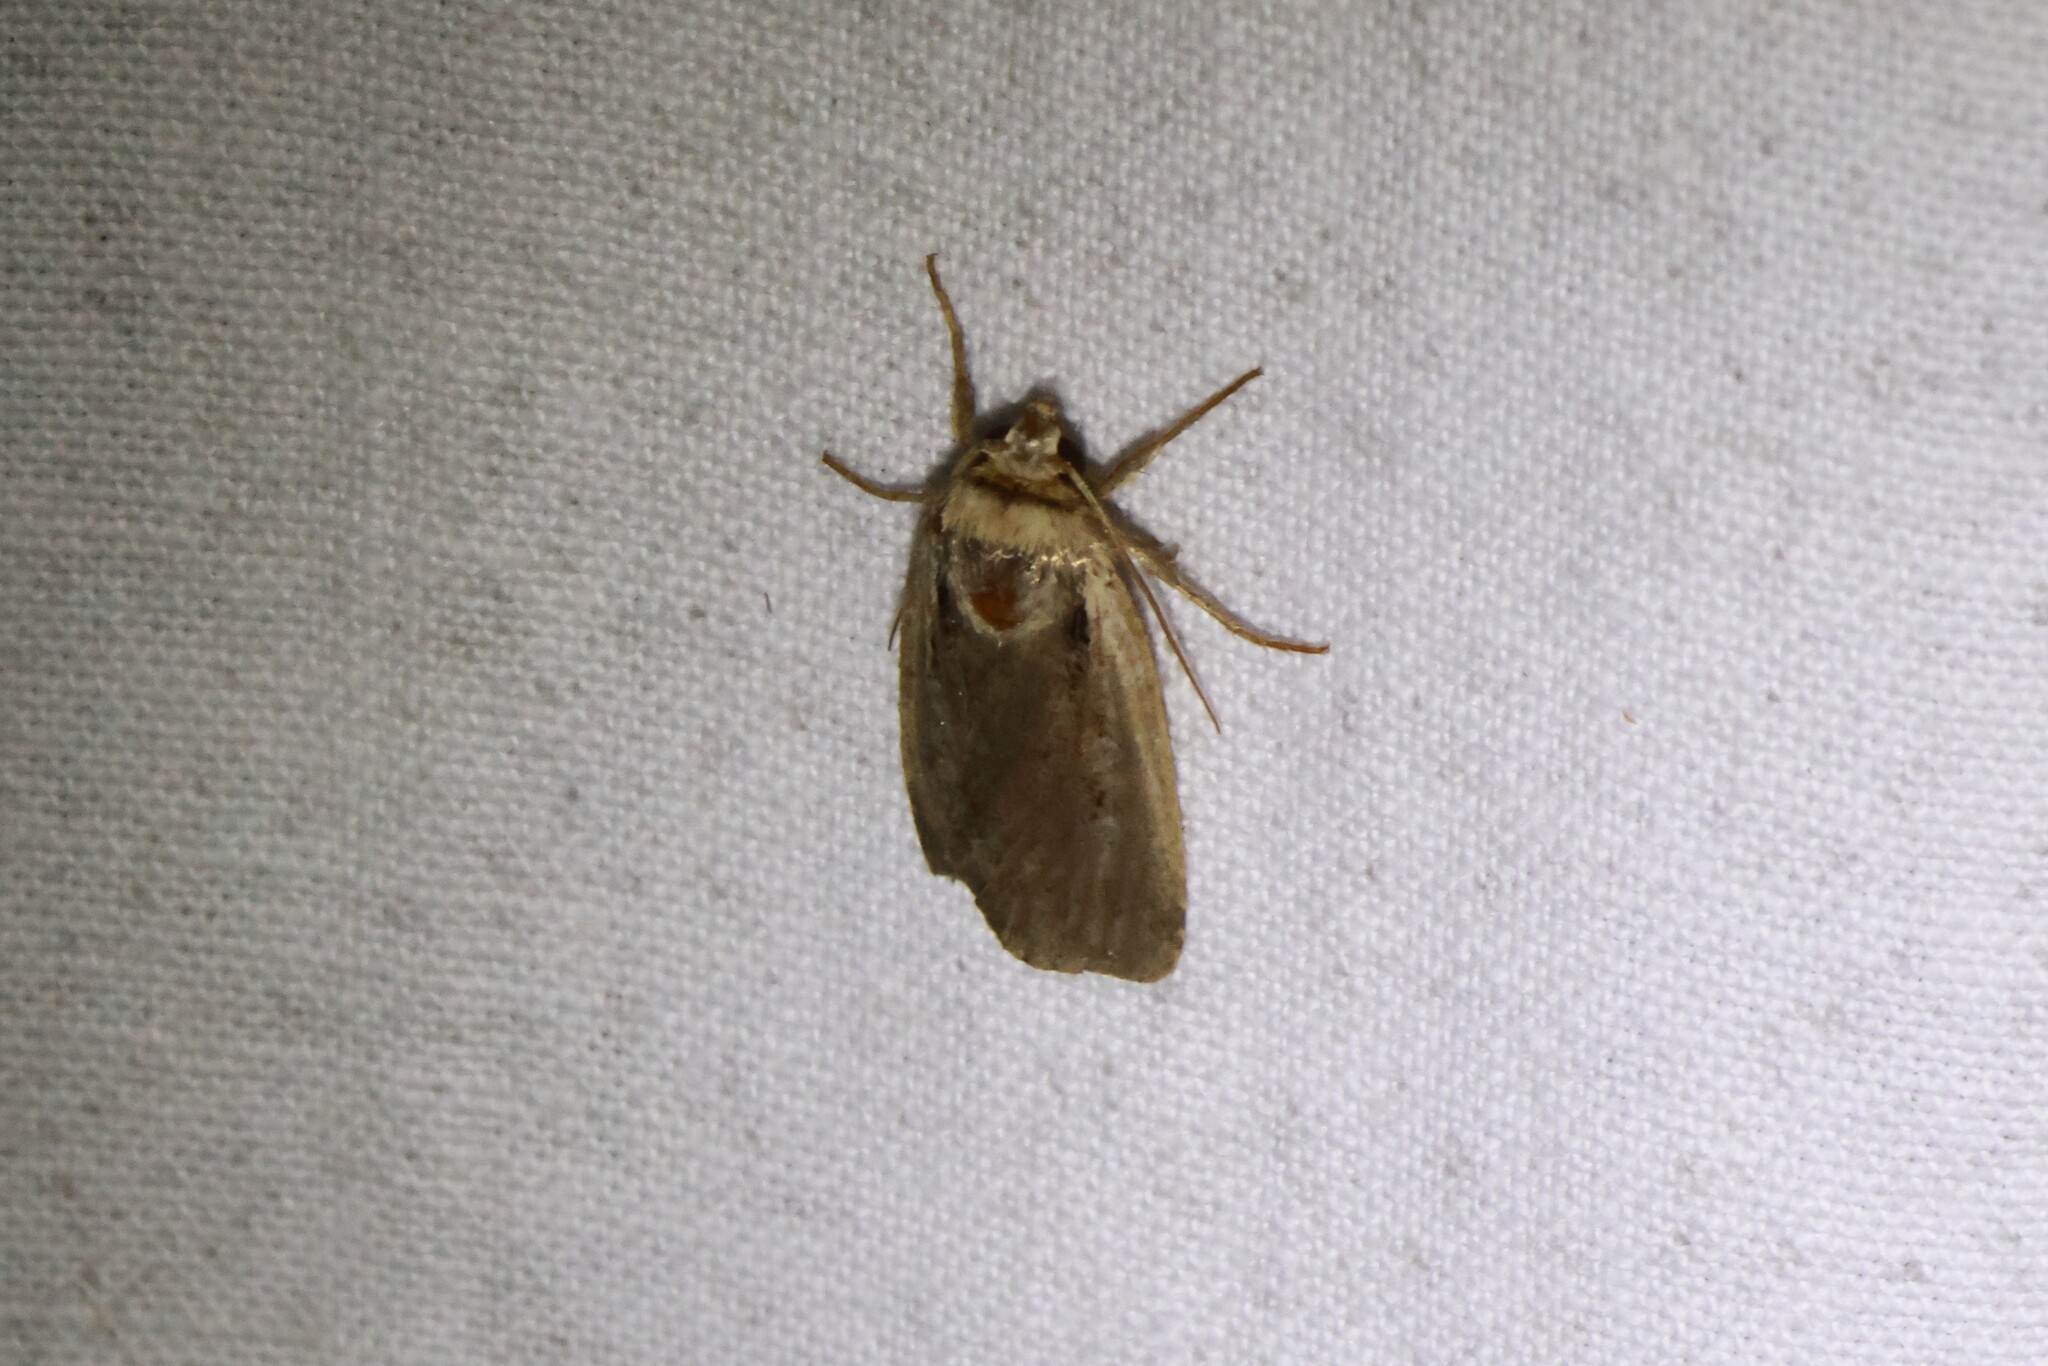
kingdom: Animalia
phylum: Arthropoda
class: Insecta
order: Lepidoptera
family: Noctuidae
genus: Ochropleura
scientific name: Ochropleura implecta
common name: Flame-shouldered dart
